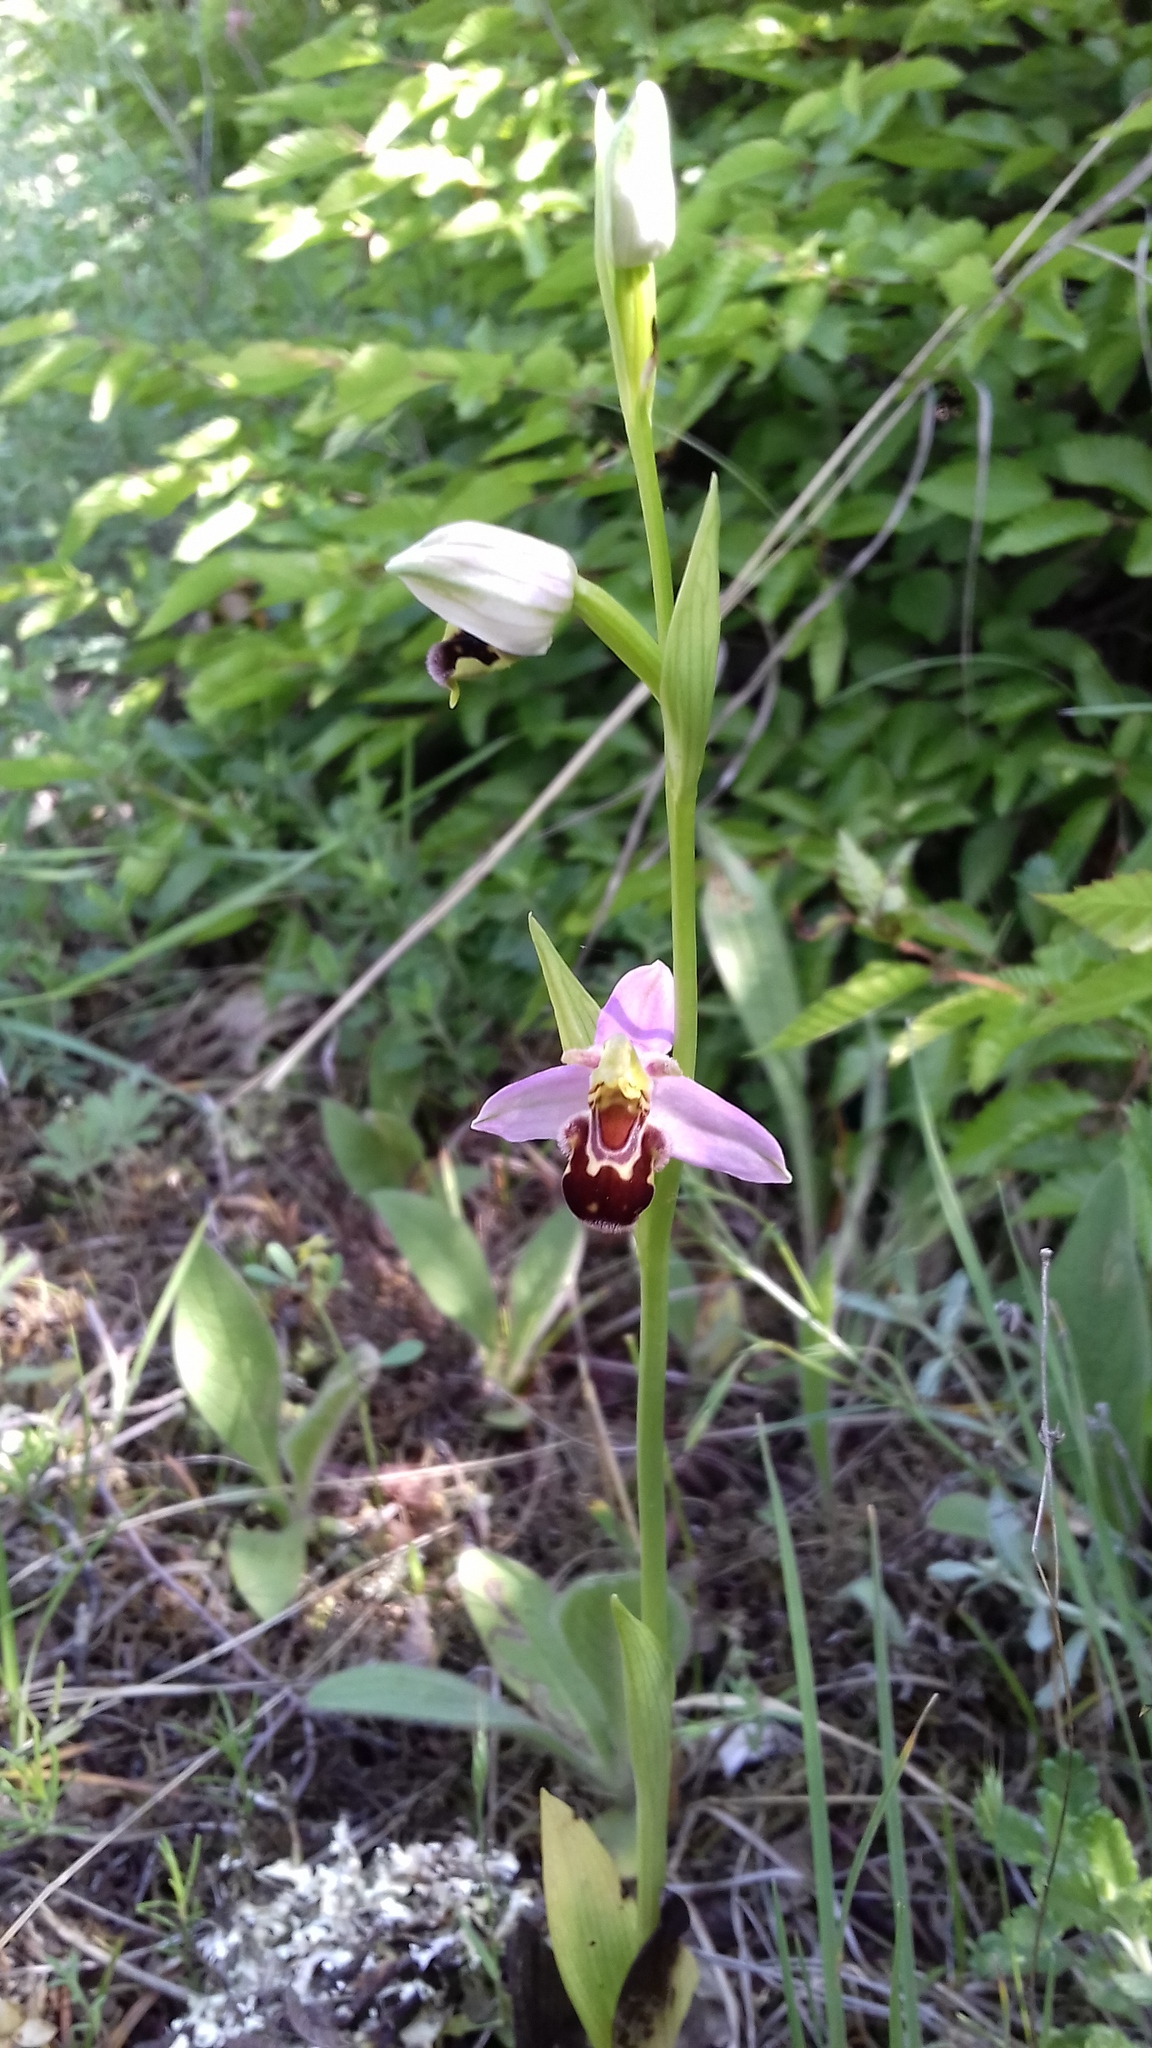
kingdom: Plantae
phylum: Tracheophyta
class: Liliopsida
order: Asparagales
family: Orchidaceae
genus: Ophrys
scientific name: Ophrys apifera
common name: Bee orchid
